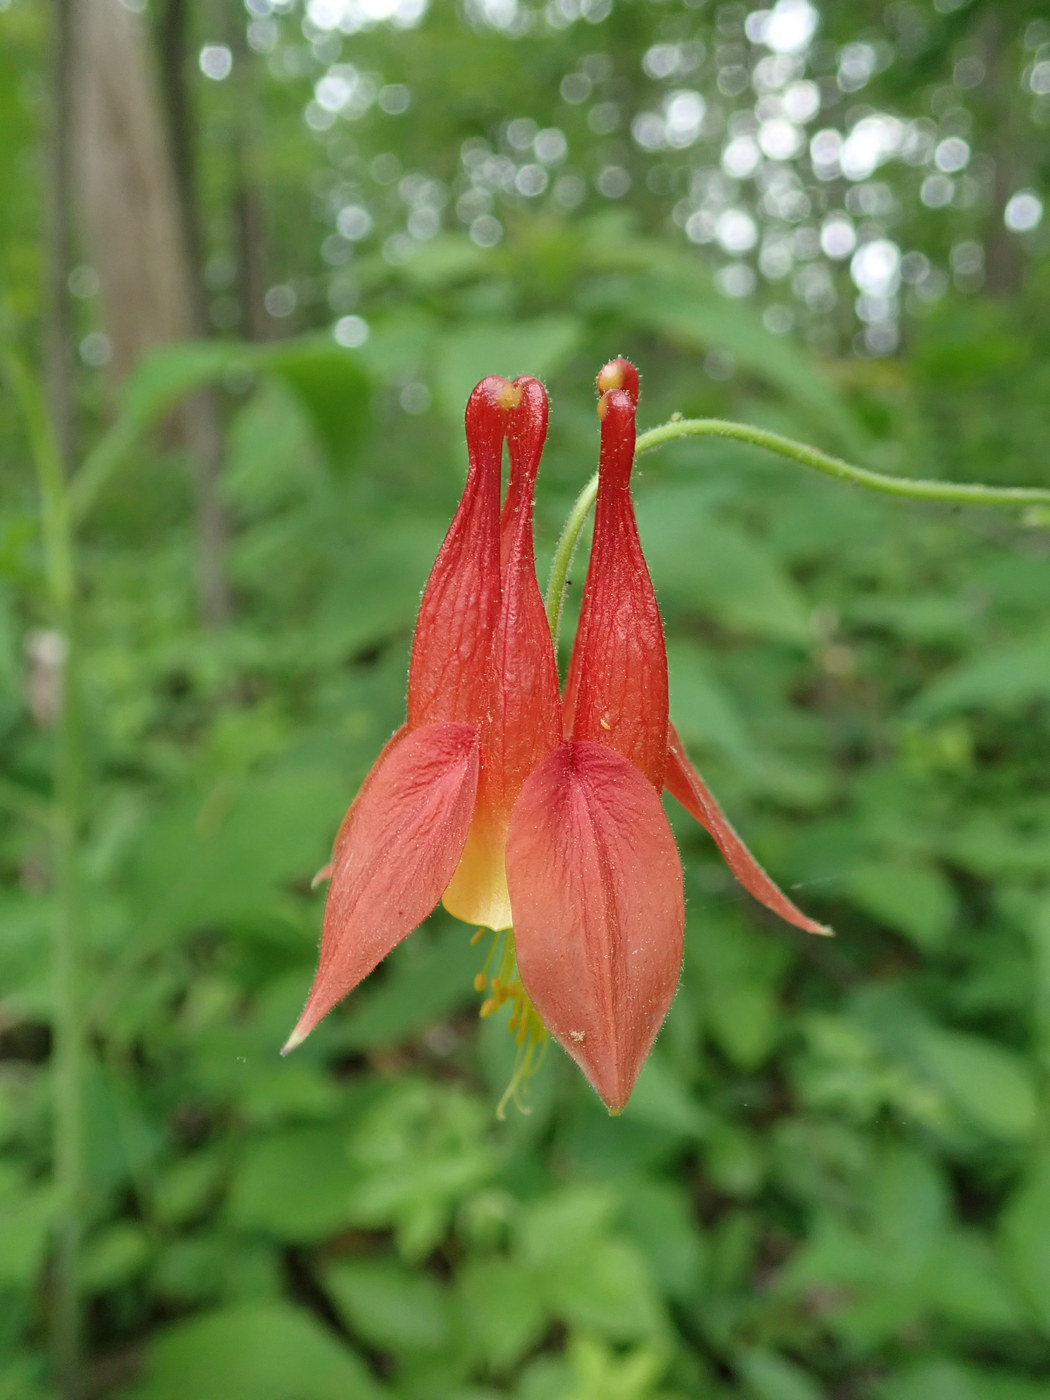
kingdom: Plantae
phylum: Tracheophyta
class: Magnoliopsida
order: Ranunculales
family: Ranunculaceae
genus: Aquilegia
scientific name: Aquilegia canadensis
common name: American columbine
